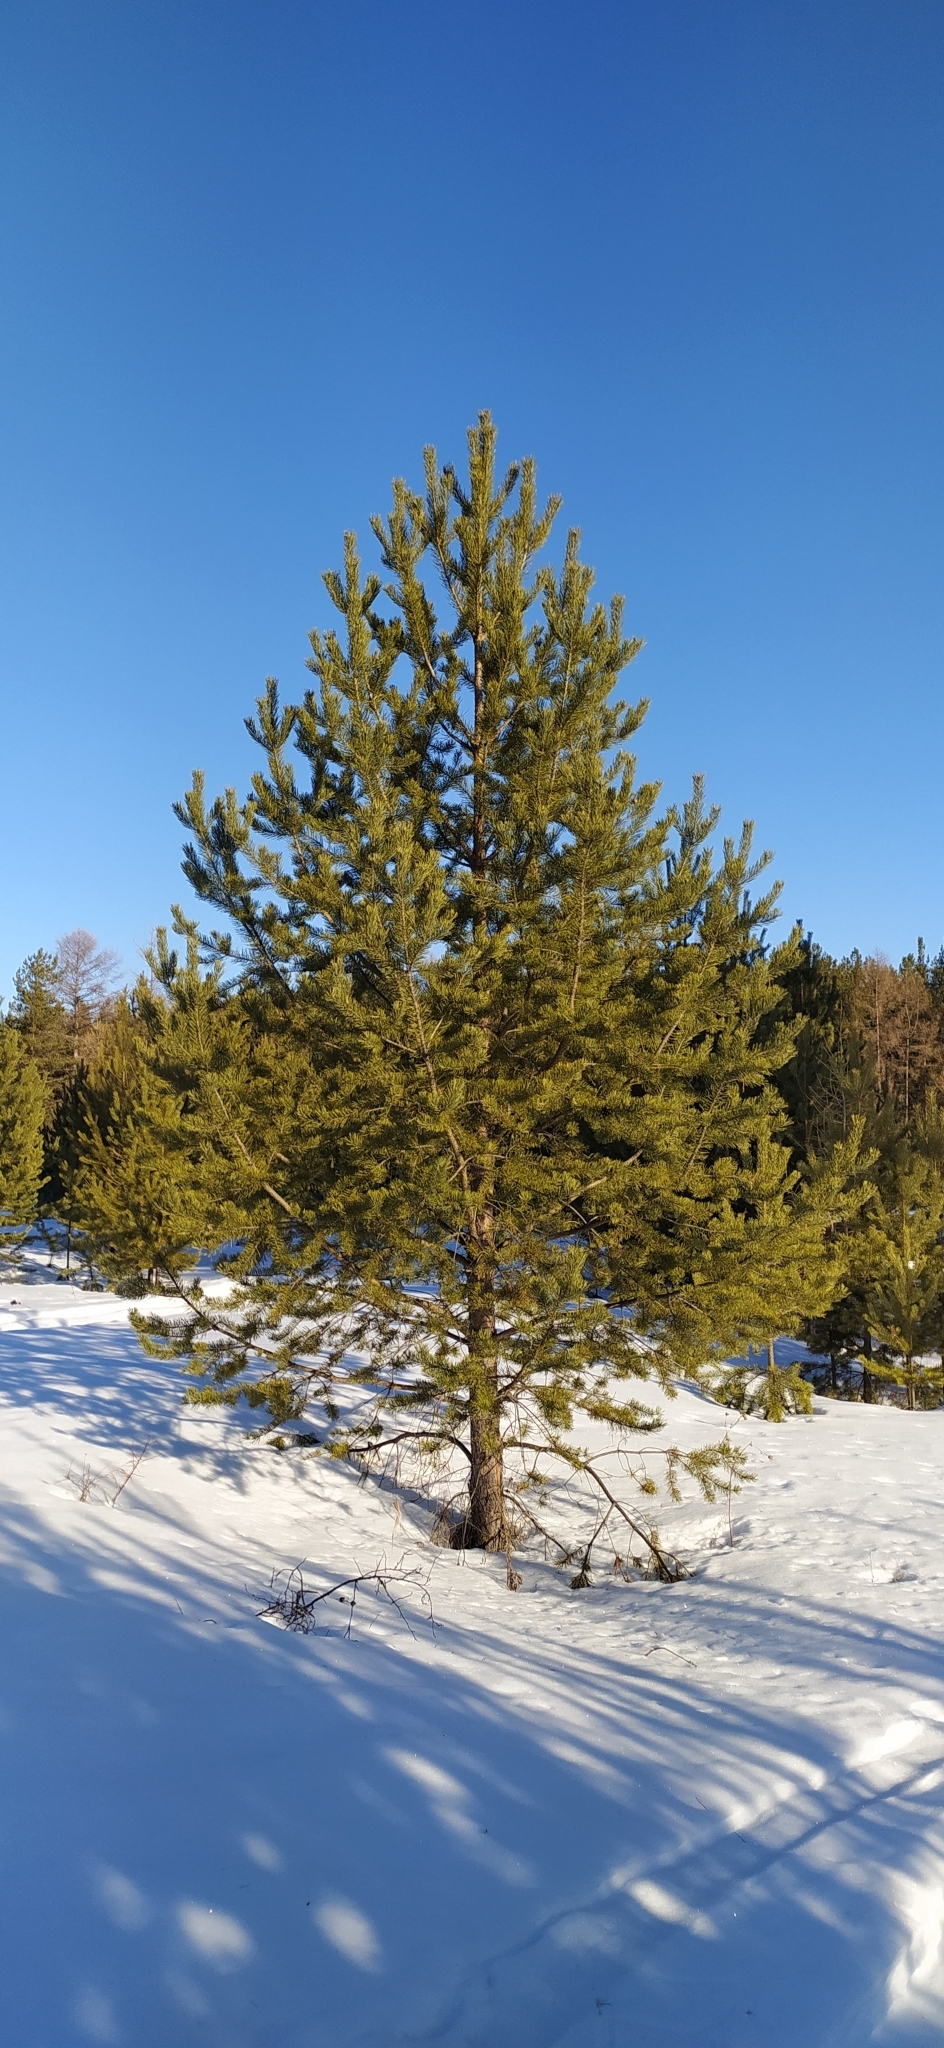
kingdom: Plantae
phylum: Tracheophyta
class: Pinopsida
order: Pinales
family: Pinaceae
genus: Pinus
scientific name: Pinus sylvestris
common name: Scots pine
